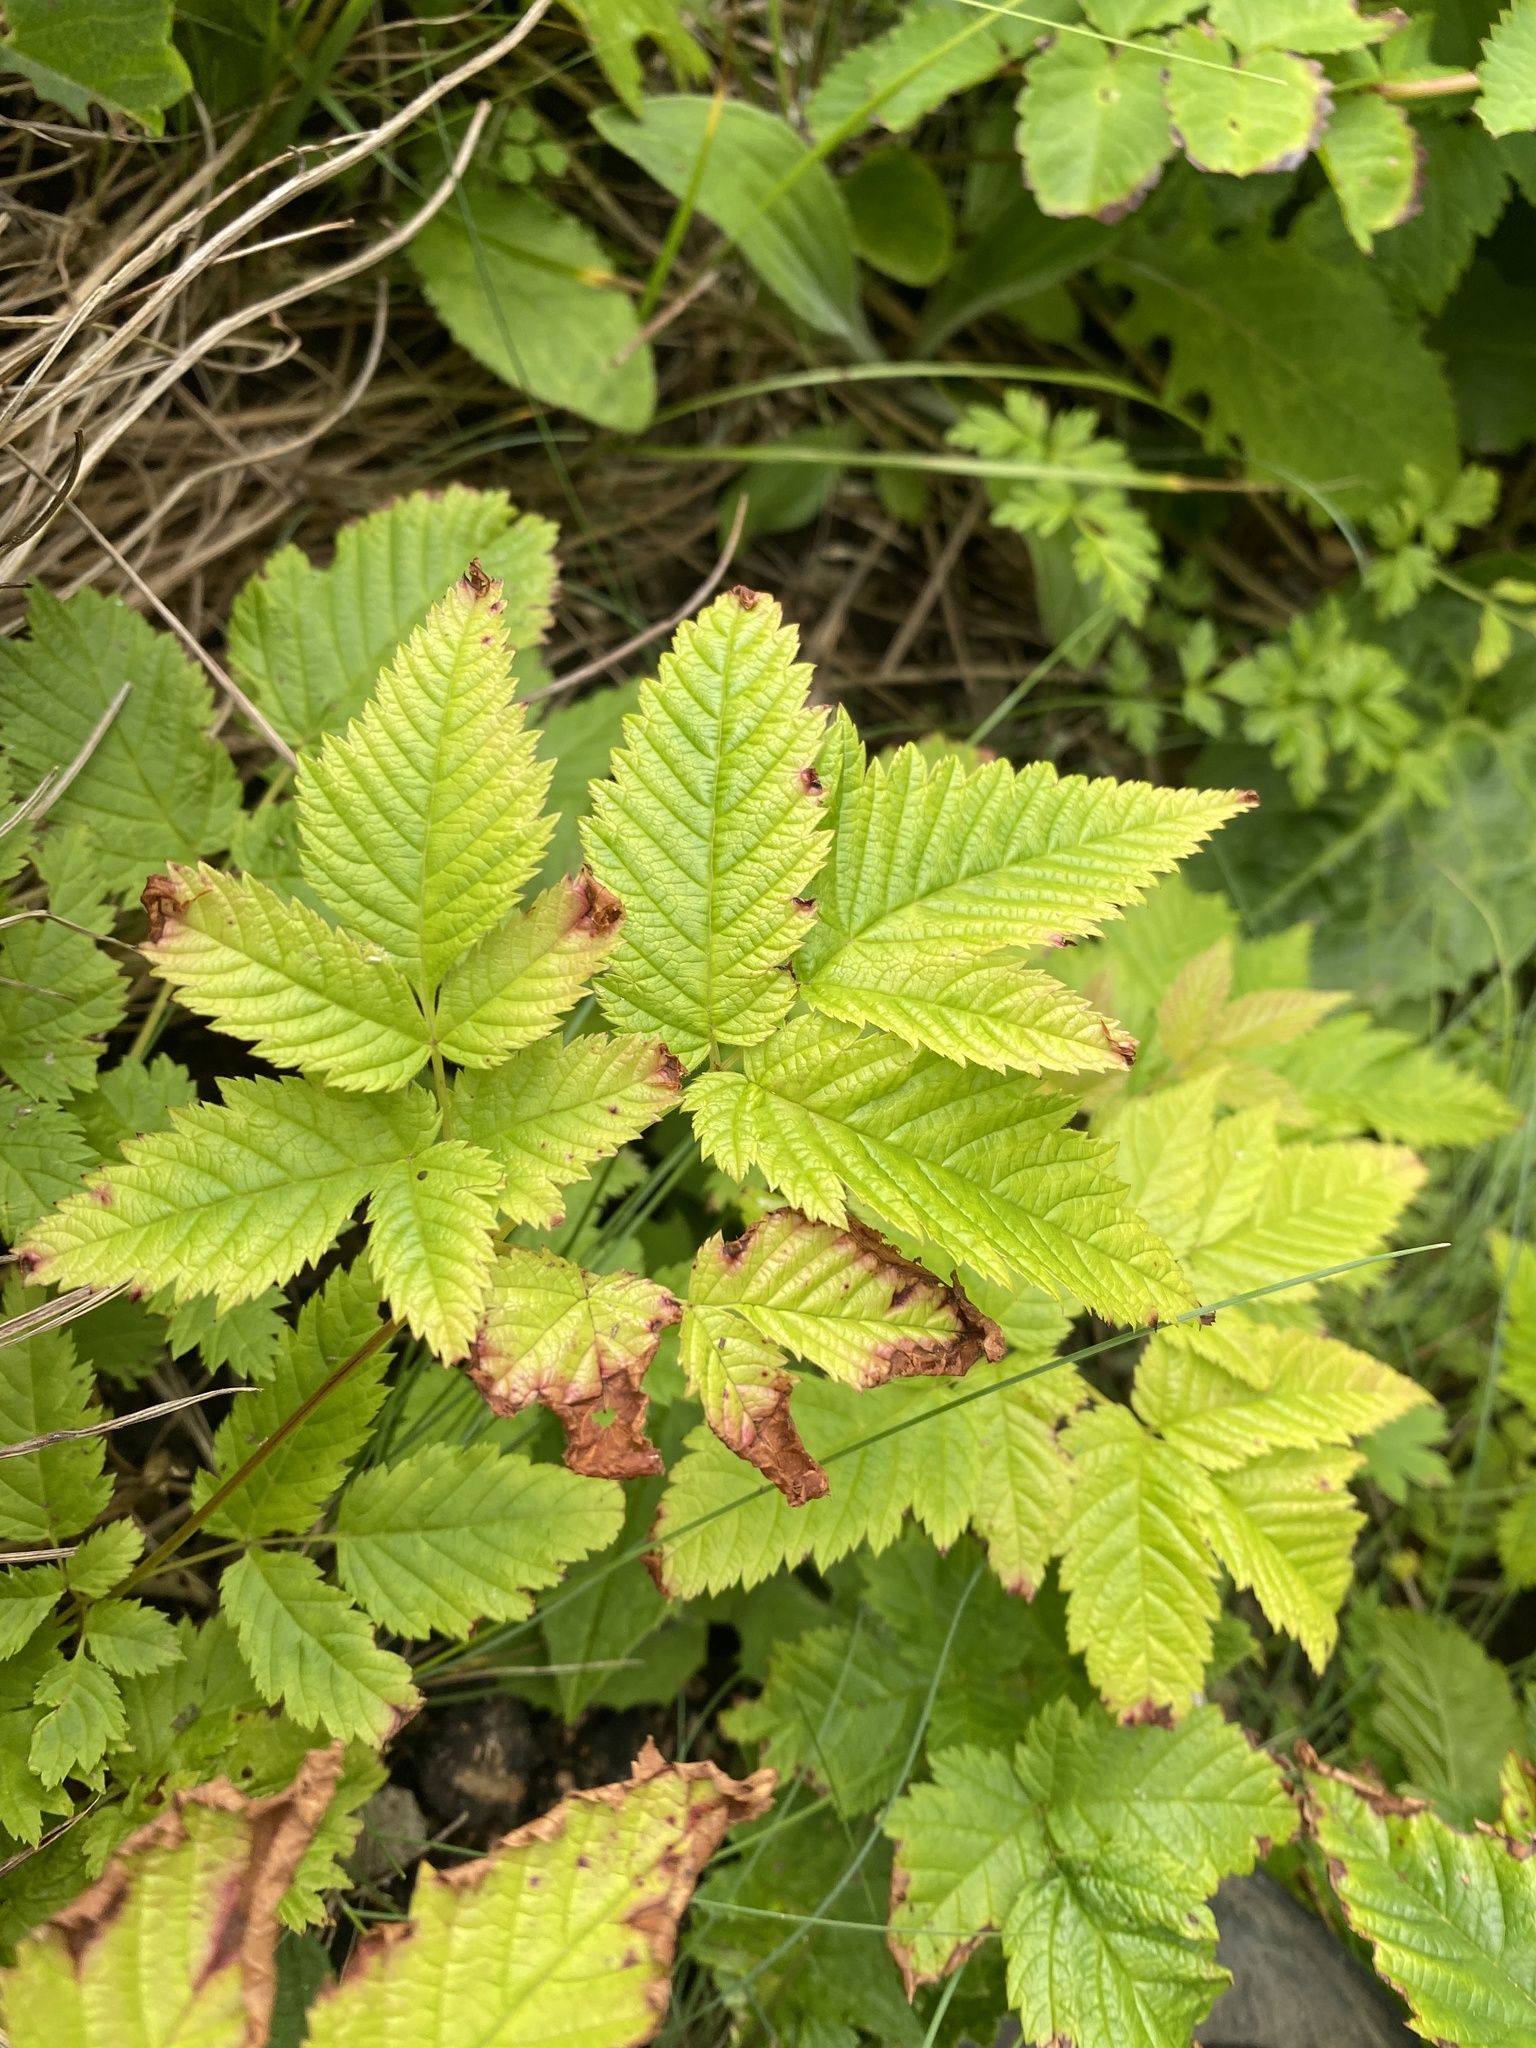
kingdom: Plantae
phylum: Tracheophyta
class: Magnoliopsida
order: Rosales
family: Rosaceae
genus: Aruncus
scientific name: Aruncus dioicus
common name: Buck's-beard
